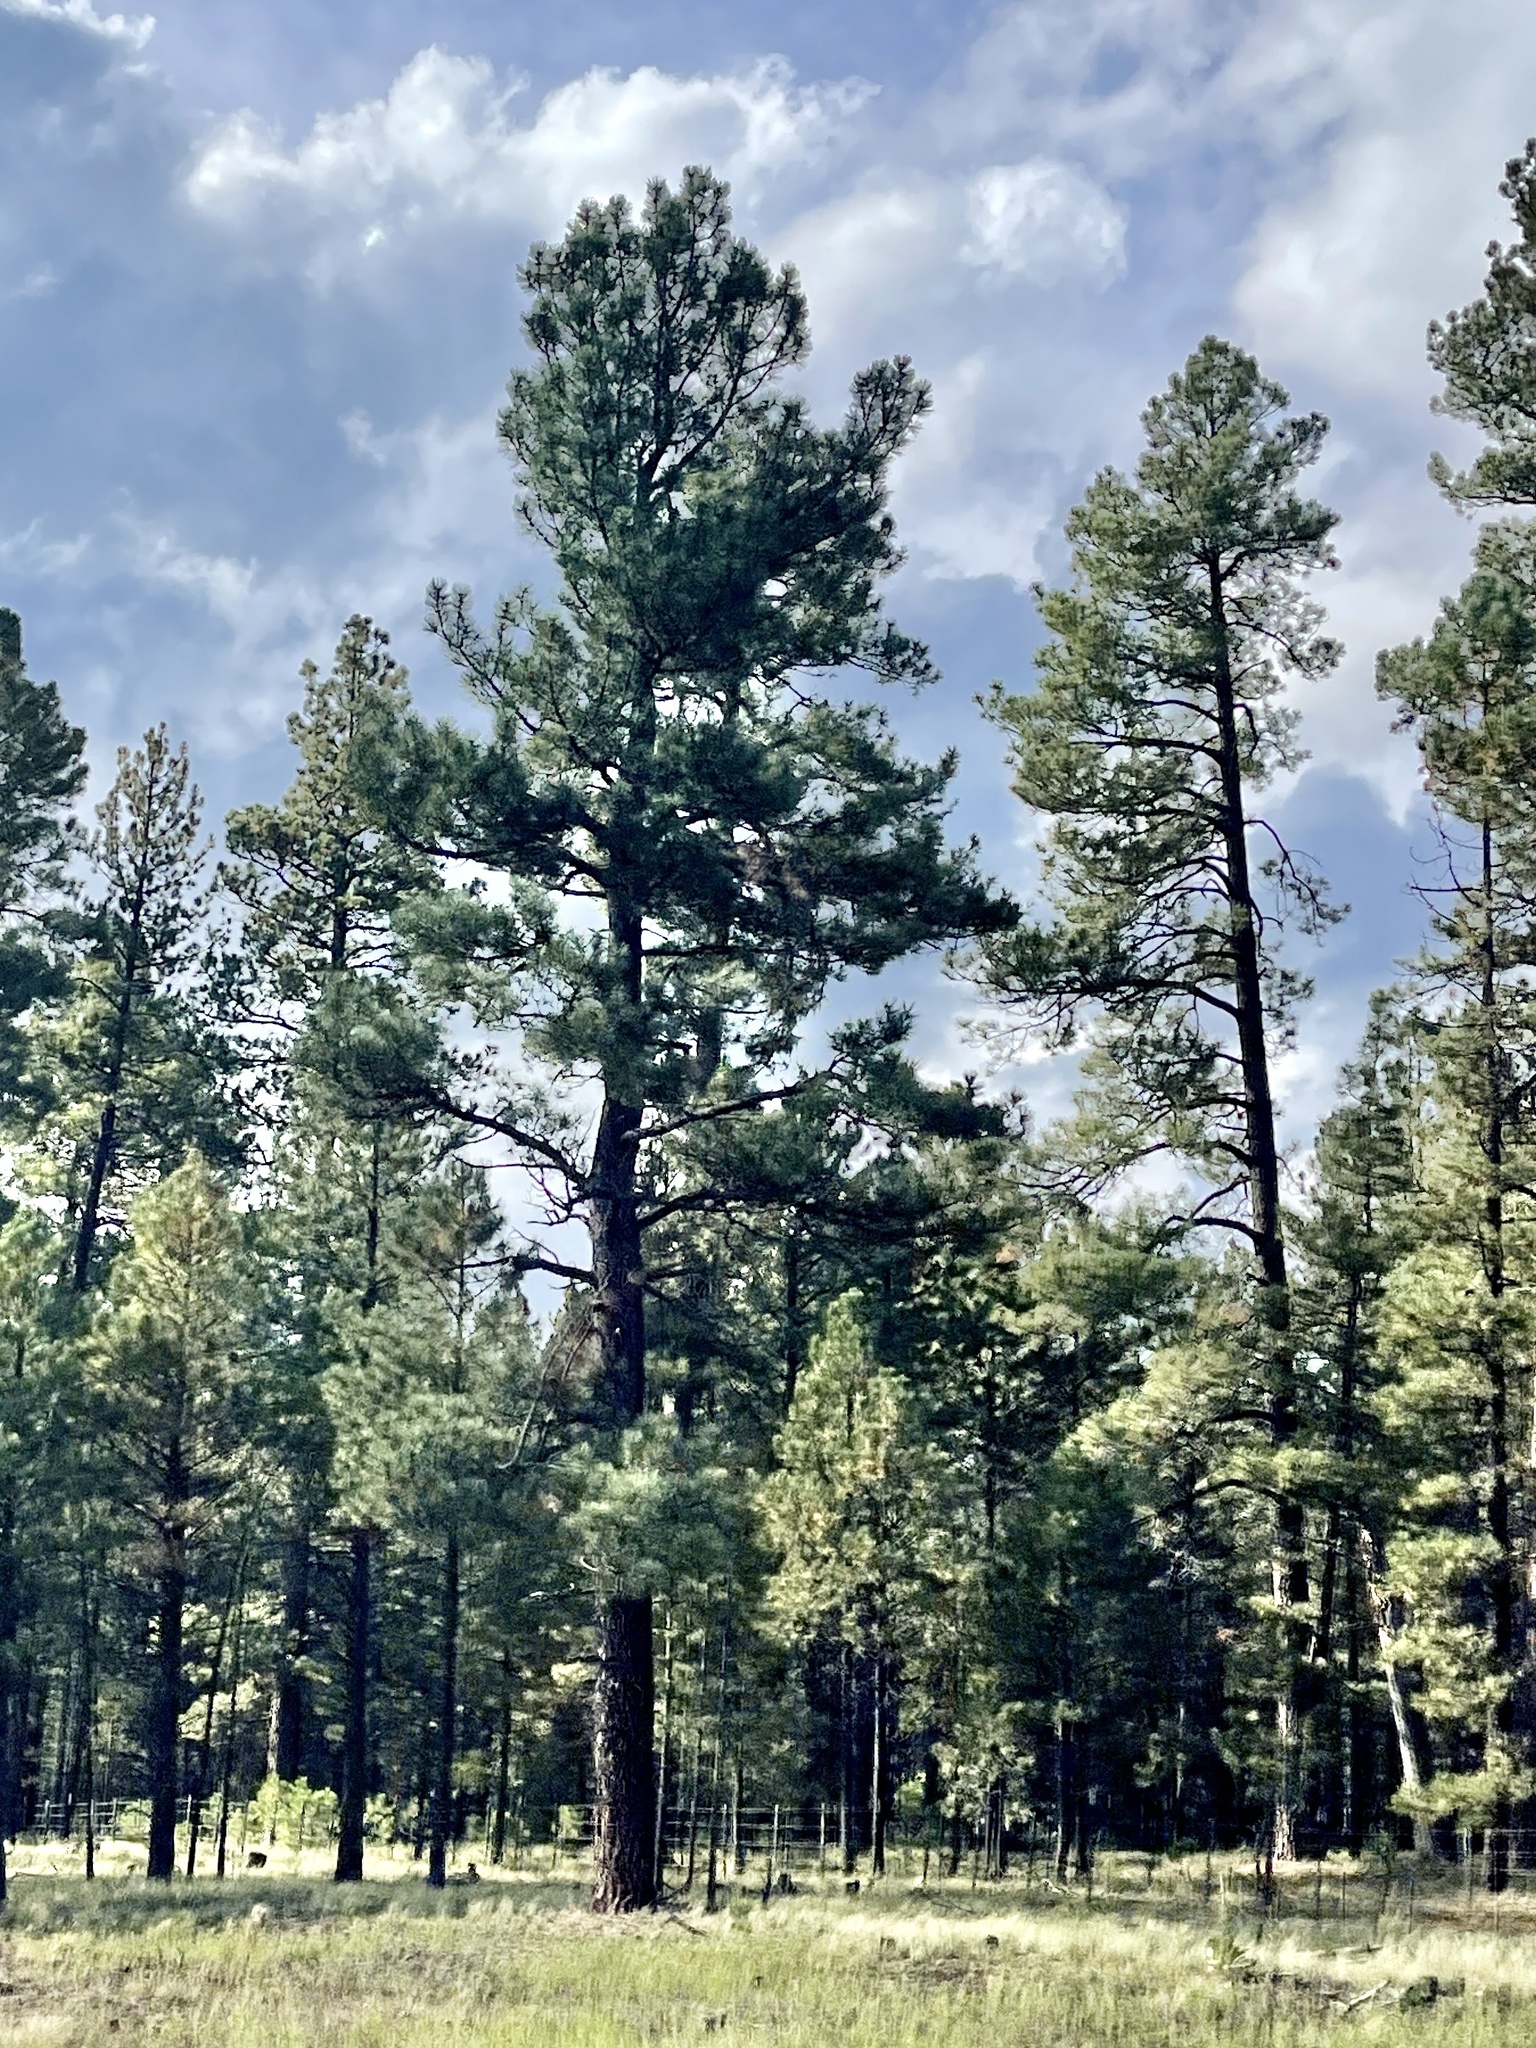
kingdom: Plantae
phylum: Tracheophyta
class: Pinopsida
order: Pinales
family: Pinaceae
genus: Pinus
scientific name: Pinus ponderosa
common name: Western yellow-pine
